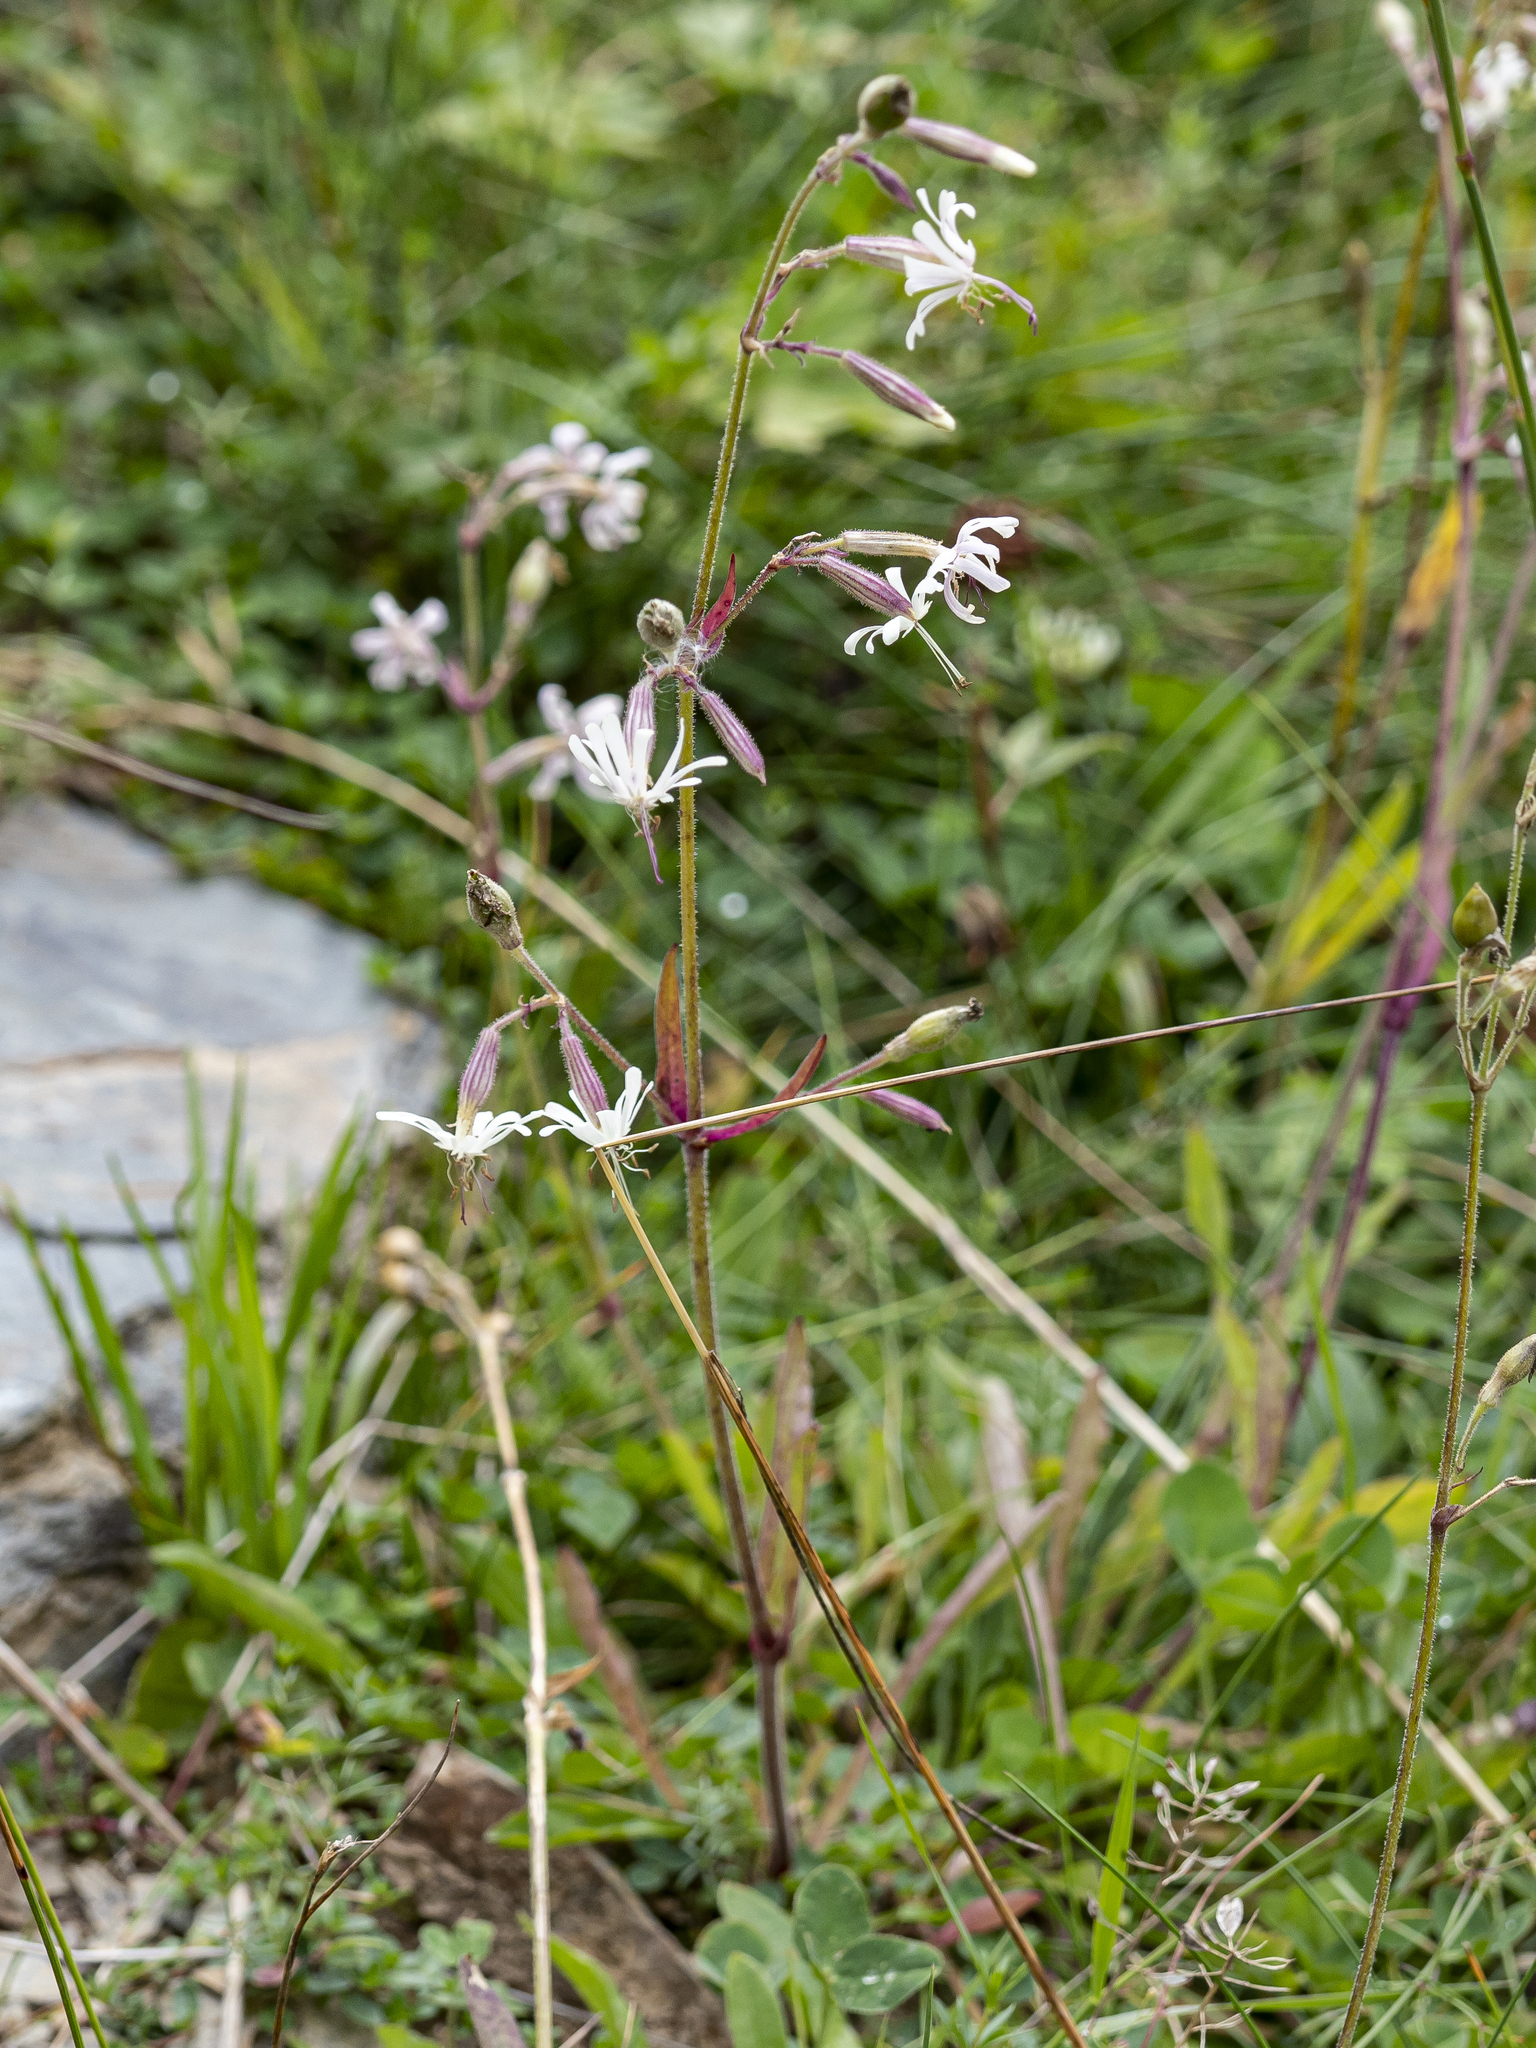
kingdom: Plantae
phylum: Tracheophyta
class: Magnoliopsida
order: Caryophyllales
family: Caryophyllaceae
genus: Silene
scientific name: Silene nutans
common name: Nottingham catchfly
